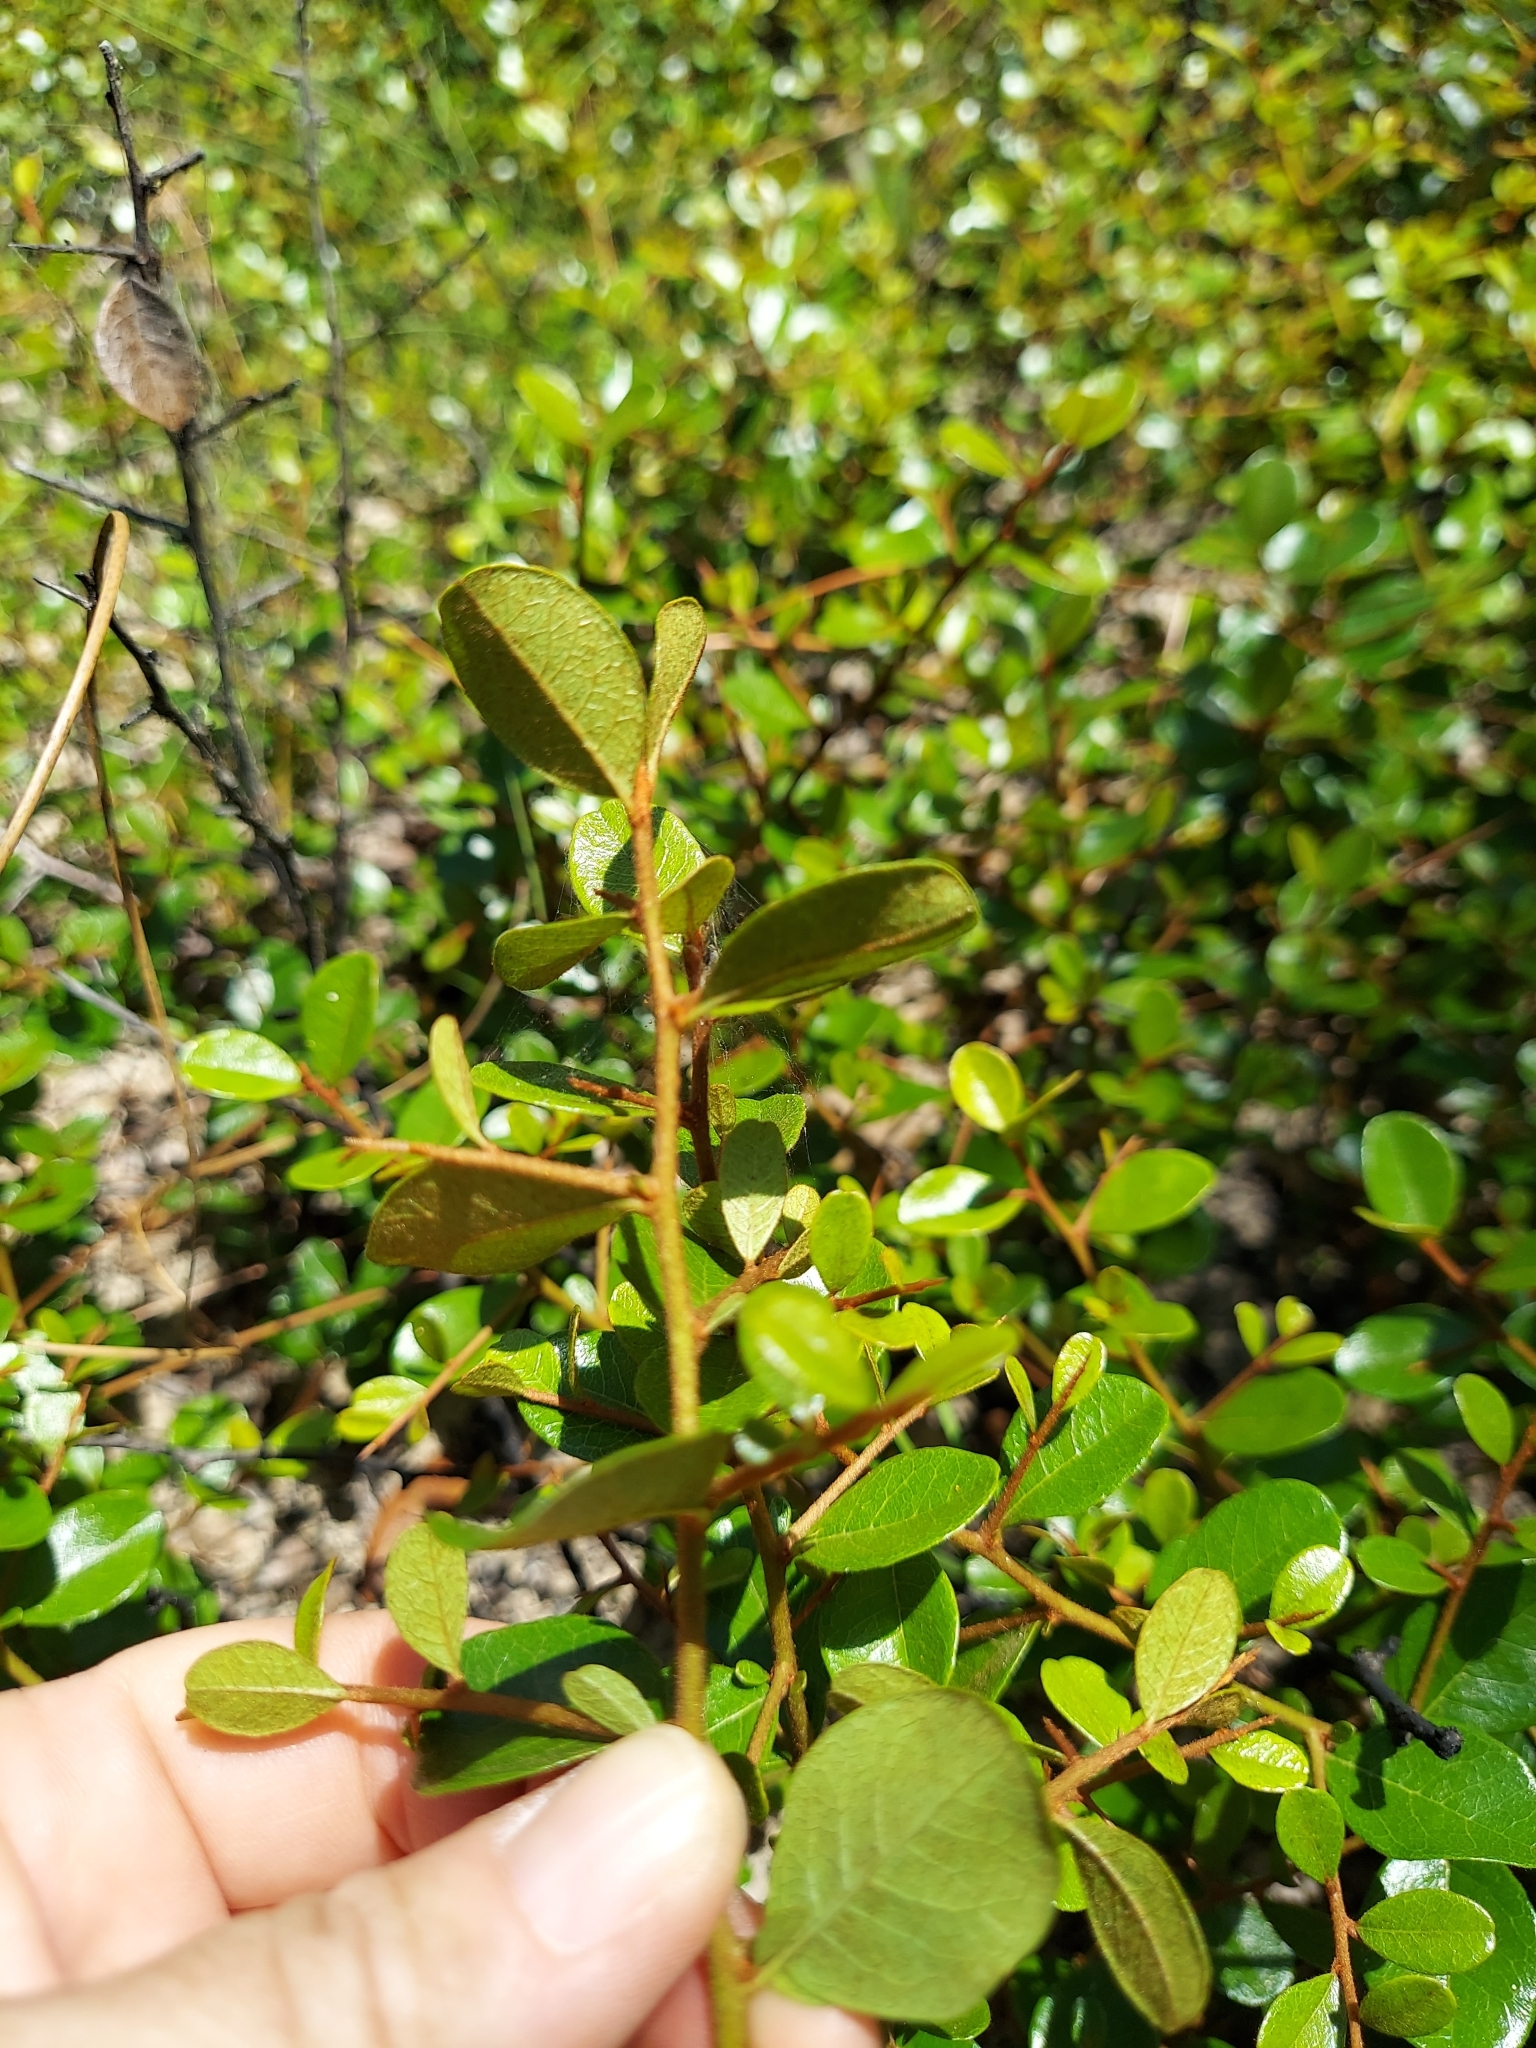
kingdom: Plantae
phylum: Tracheophyta
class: Magnoliopsida
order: Ericales
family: Sapotaceae
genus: Sideroxylon
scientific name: Sideroxylon rufohirtum
